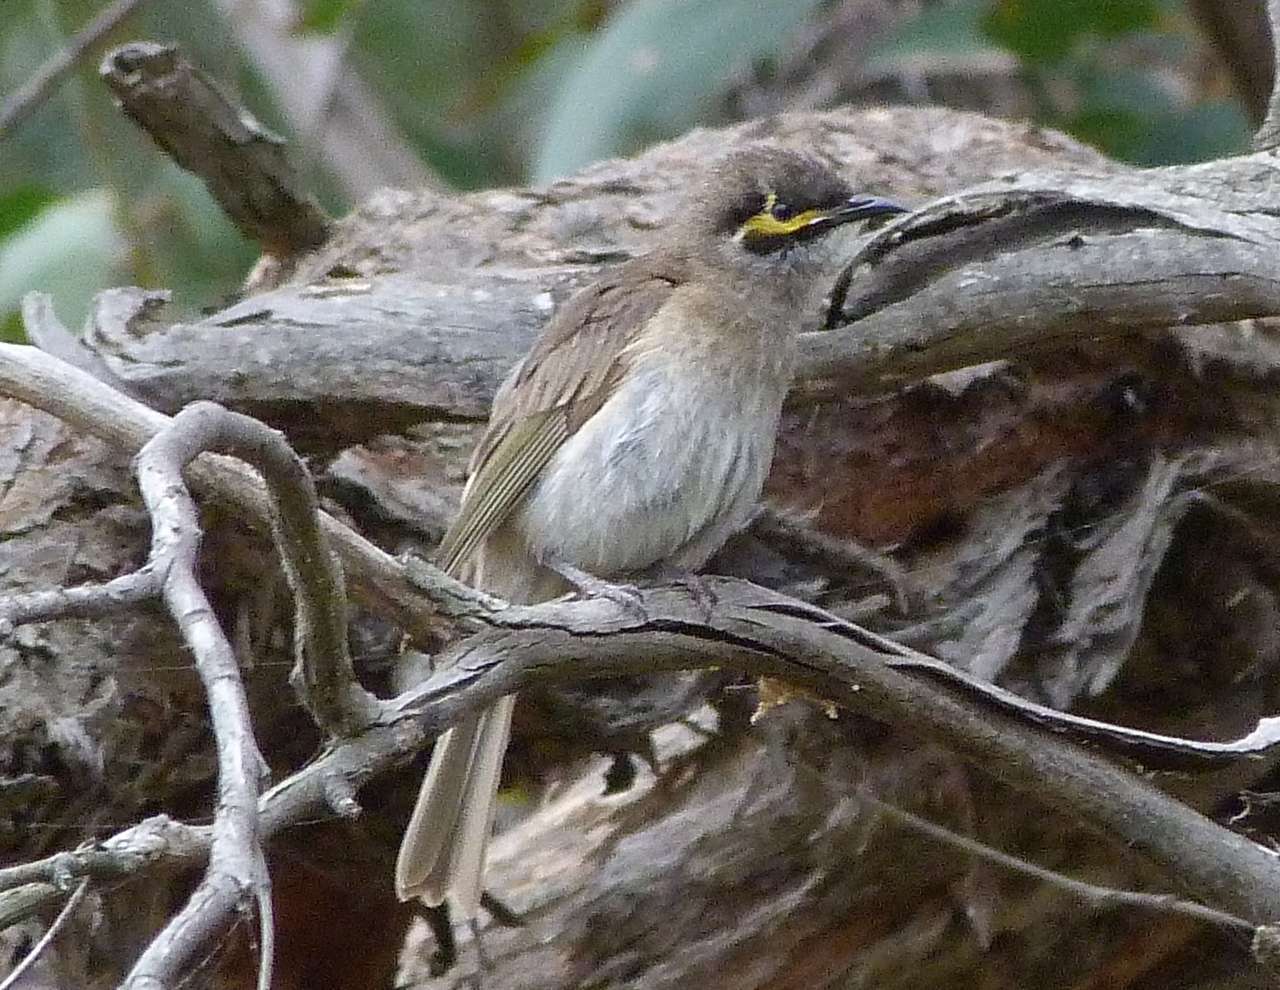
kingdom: Animalia
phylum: Chordata
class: Aves
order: Passeriformes
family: Meliphagidae
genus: Caligavis
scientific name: Caligavis chrysops
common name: Yellow-faced honeyeater
